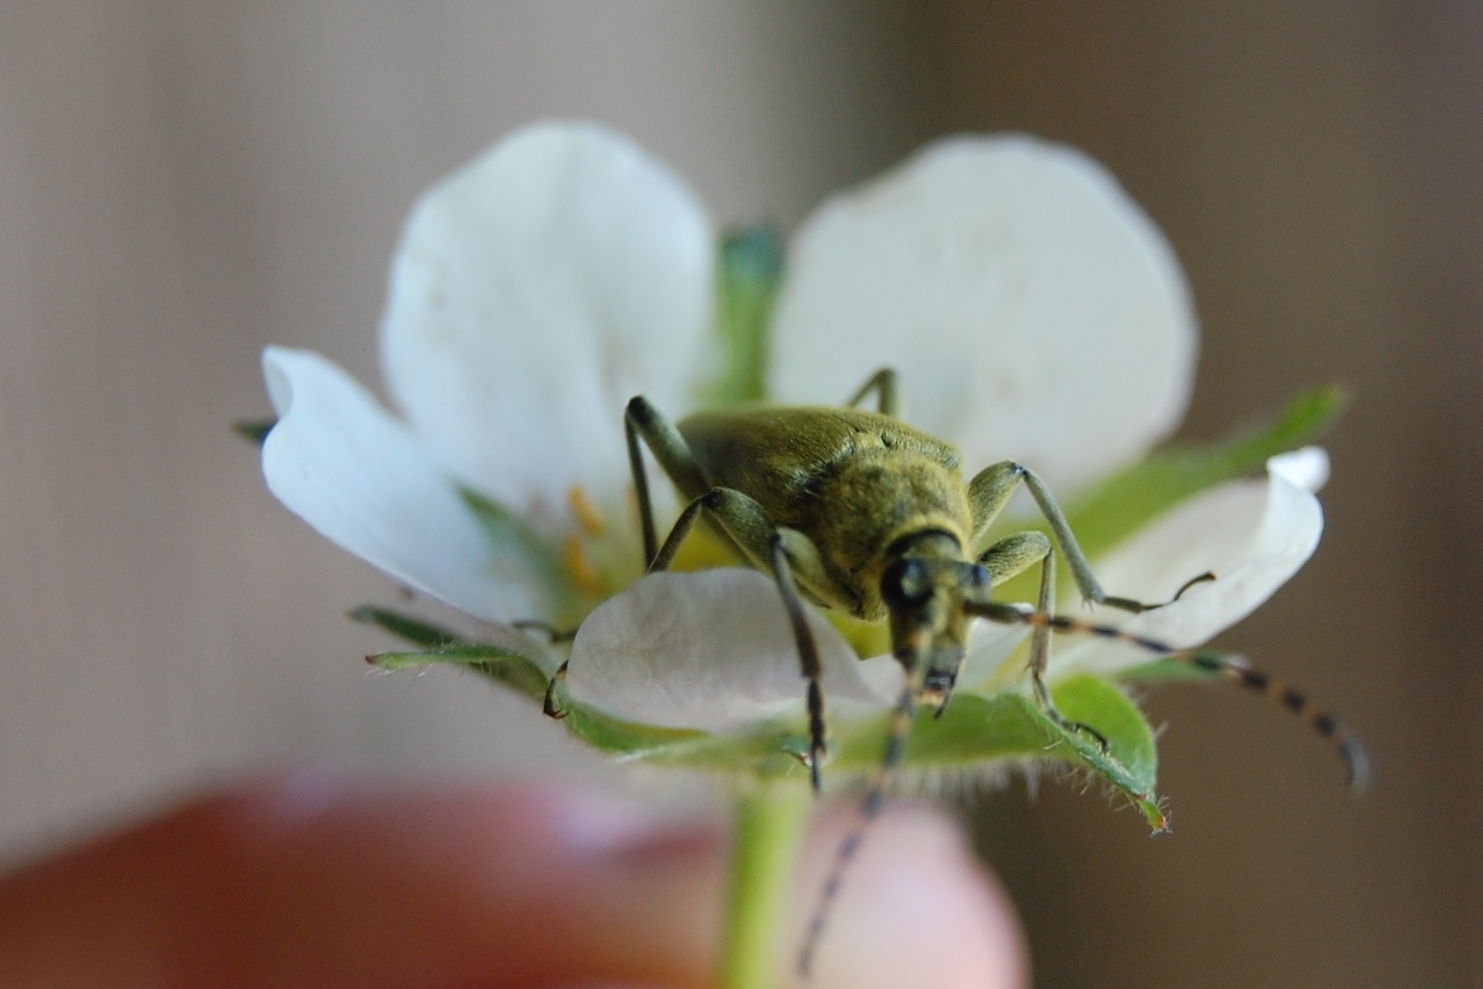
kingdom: Animalia
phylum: Arthropoda
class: Insecta
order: Coleoptera
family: Cerambycidae
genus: Lepturobosca
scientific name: Lepturobosca virens
